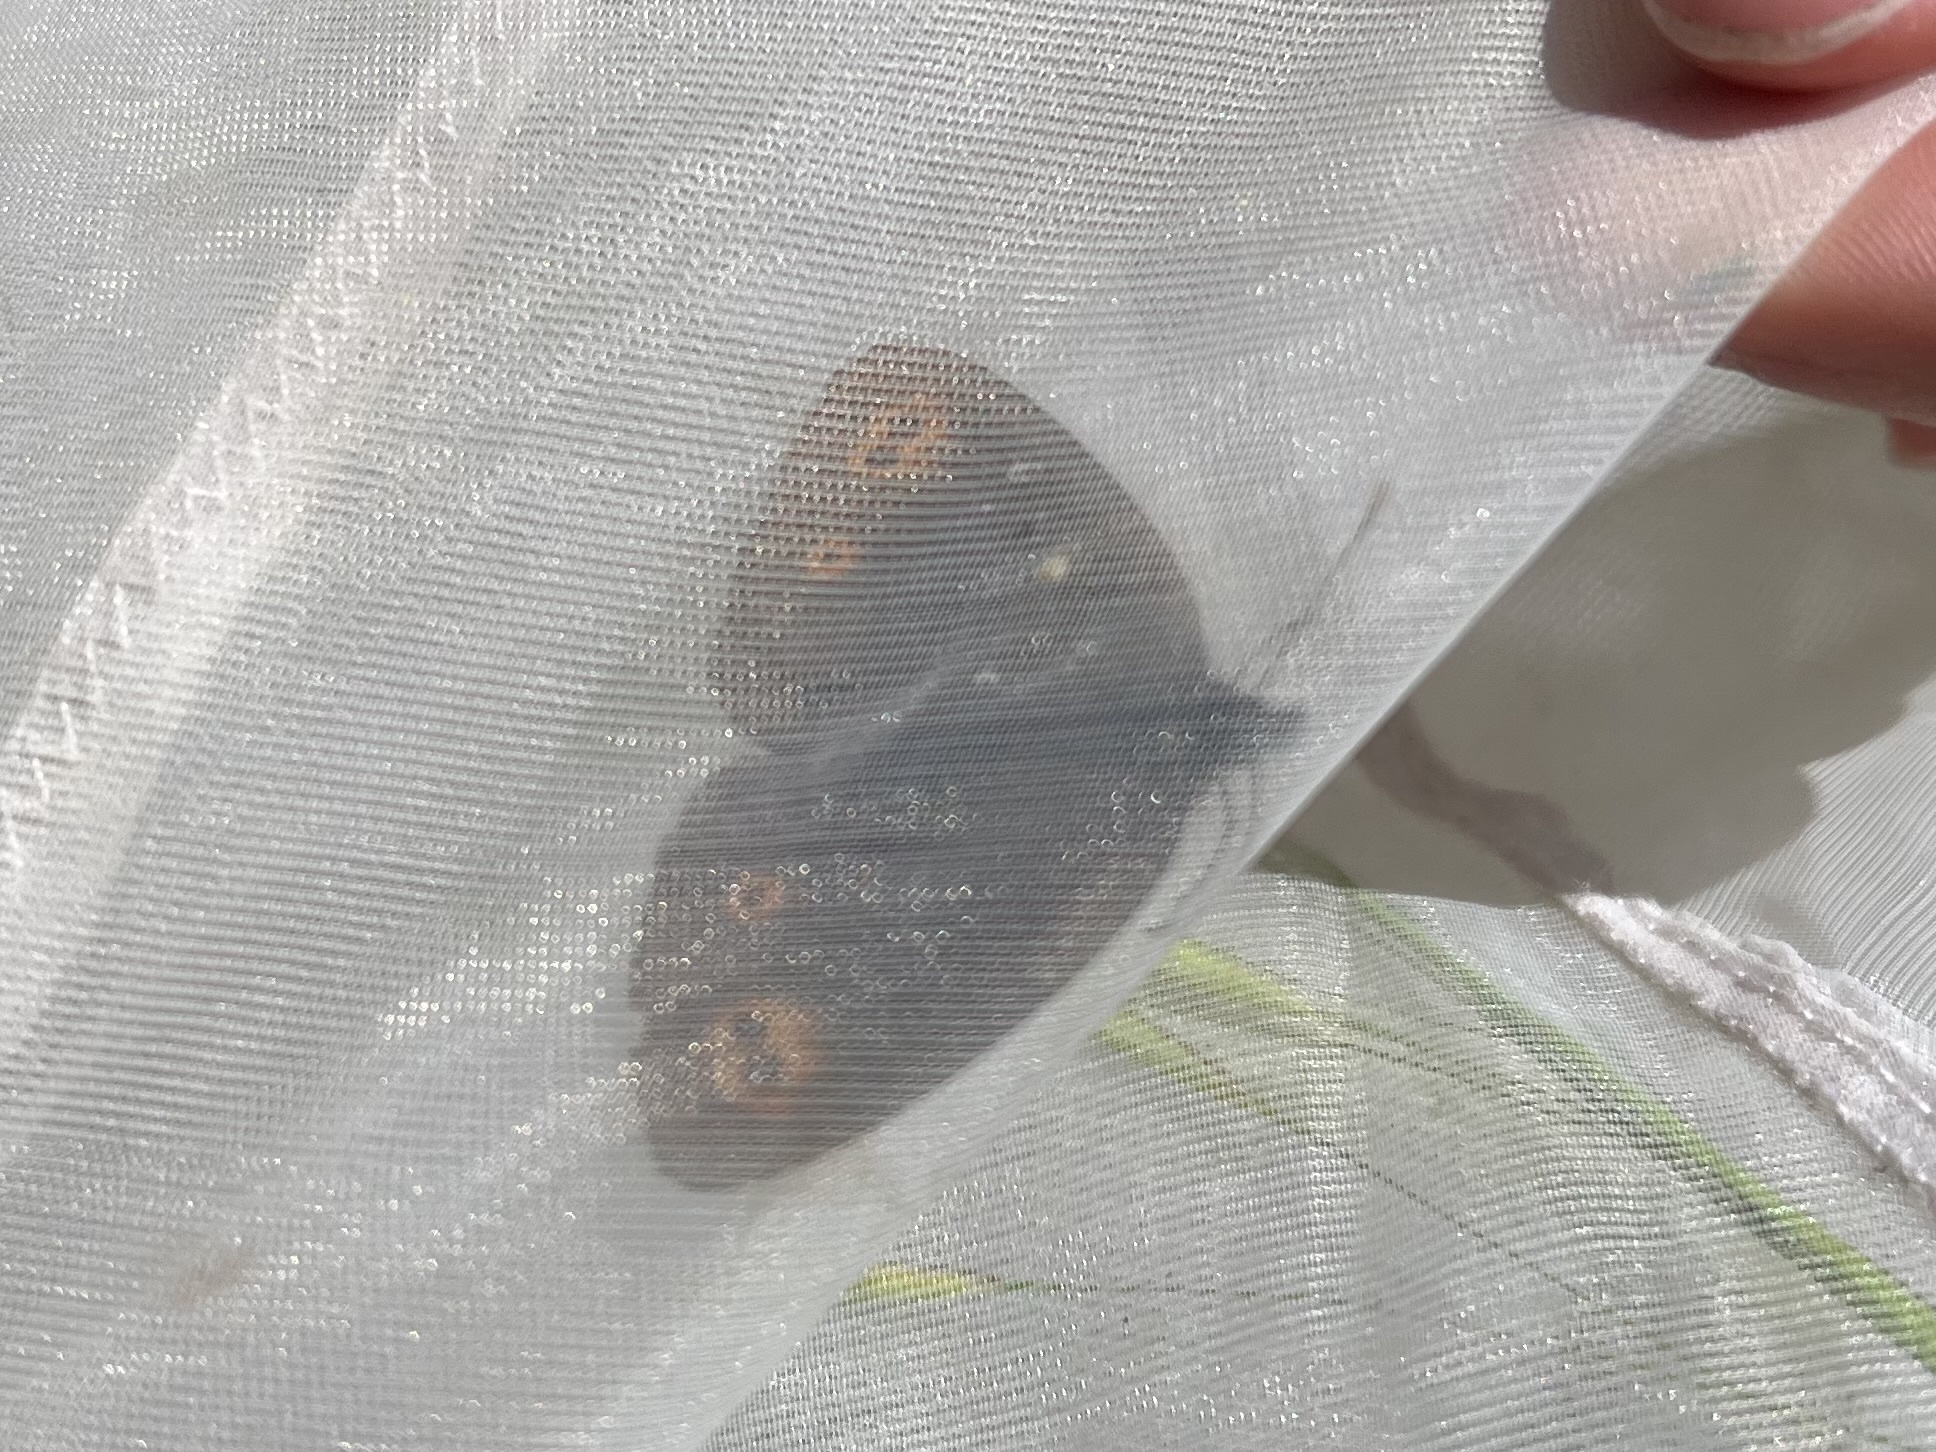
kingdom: Animalia
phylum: Arthropoda
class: Insecta
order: Lepidoptera
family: Nymphalidae
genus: Erebia
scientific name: Erebia medusa
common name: Woodland ringlet
